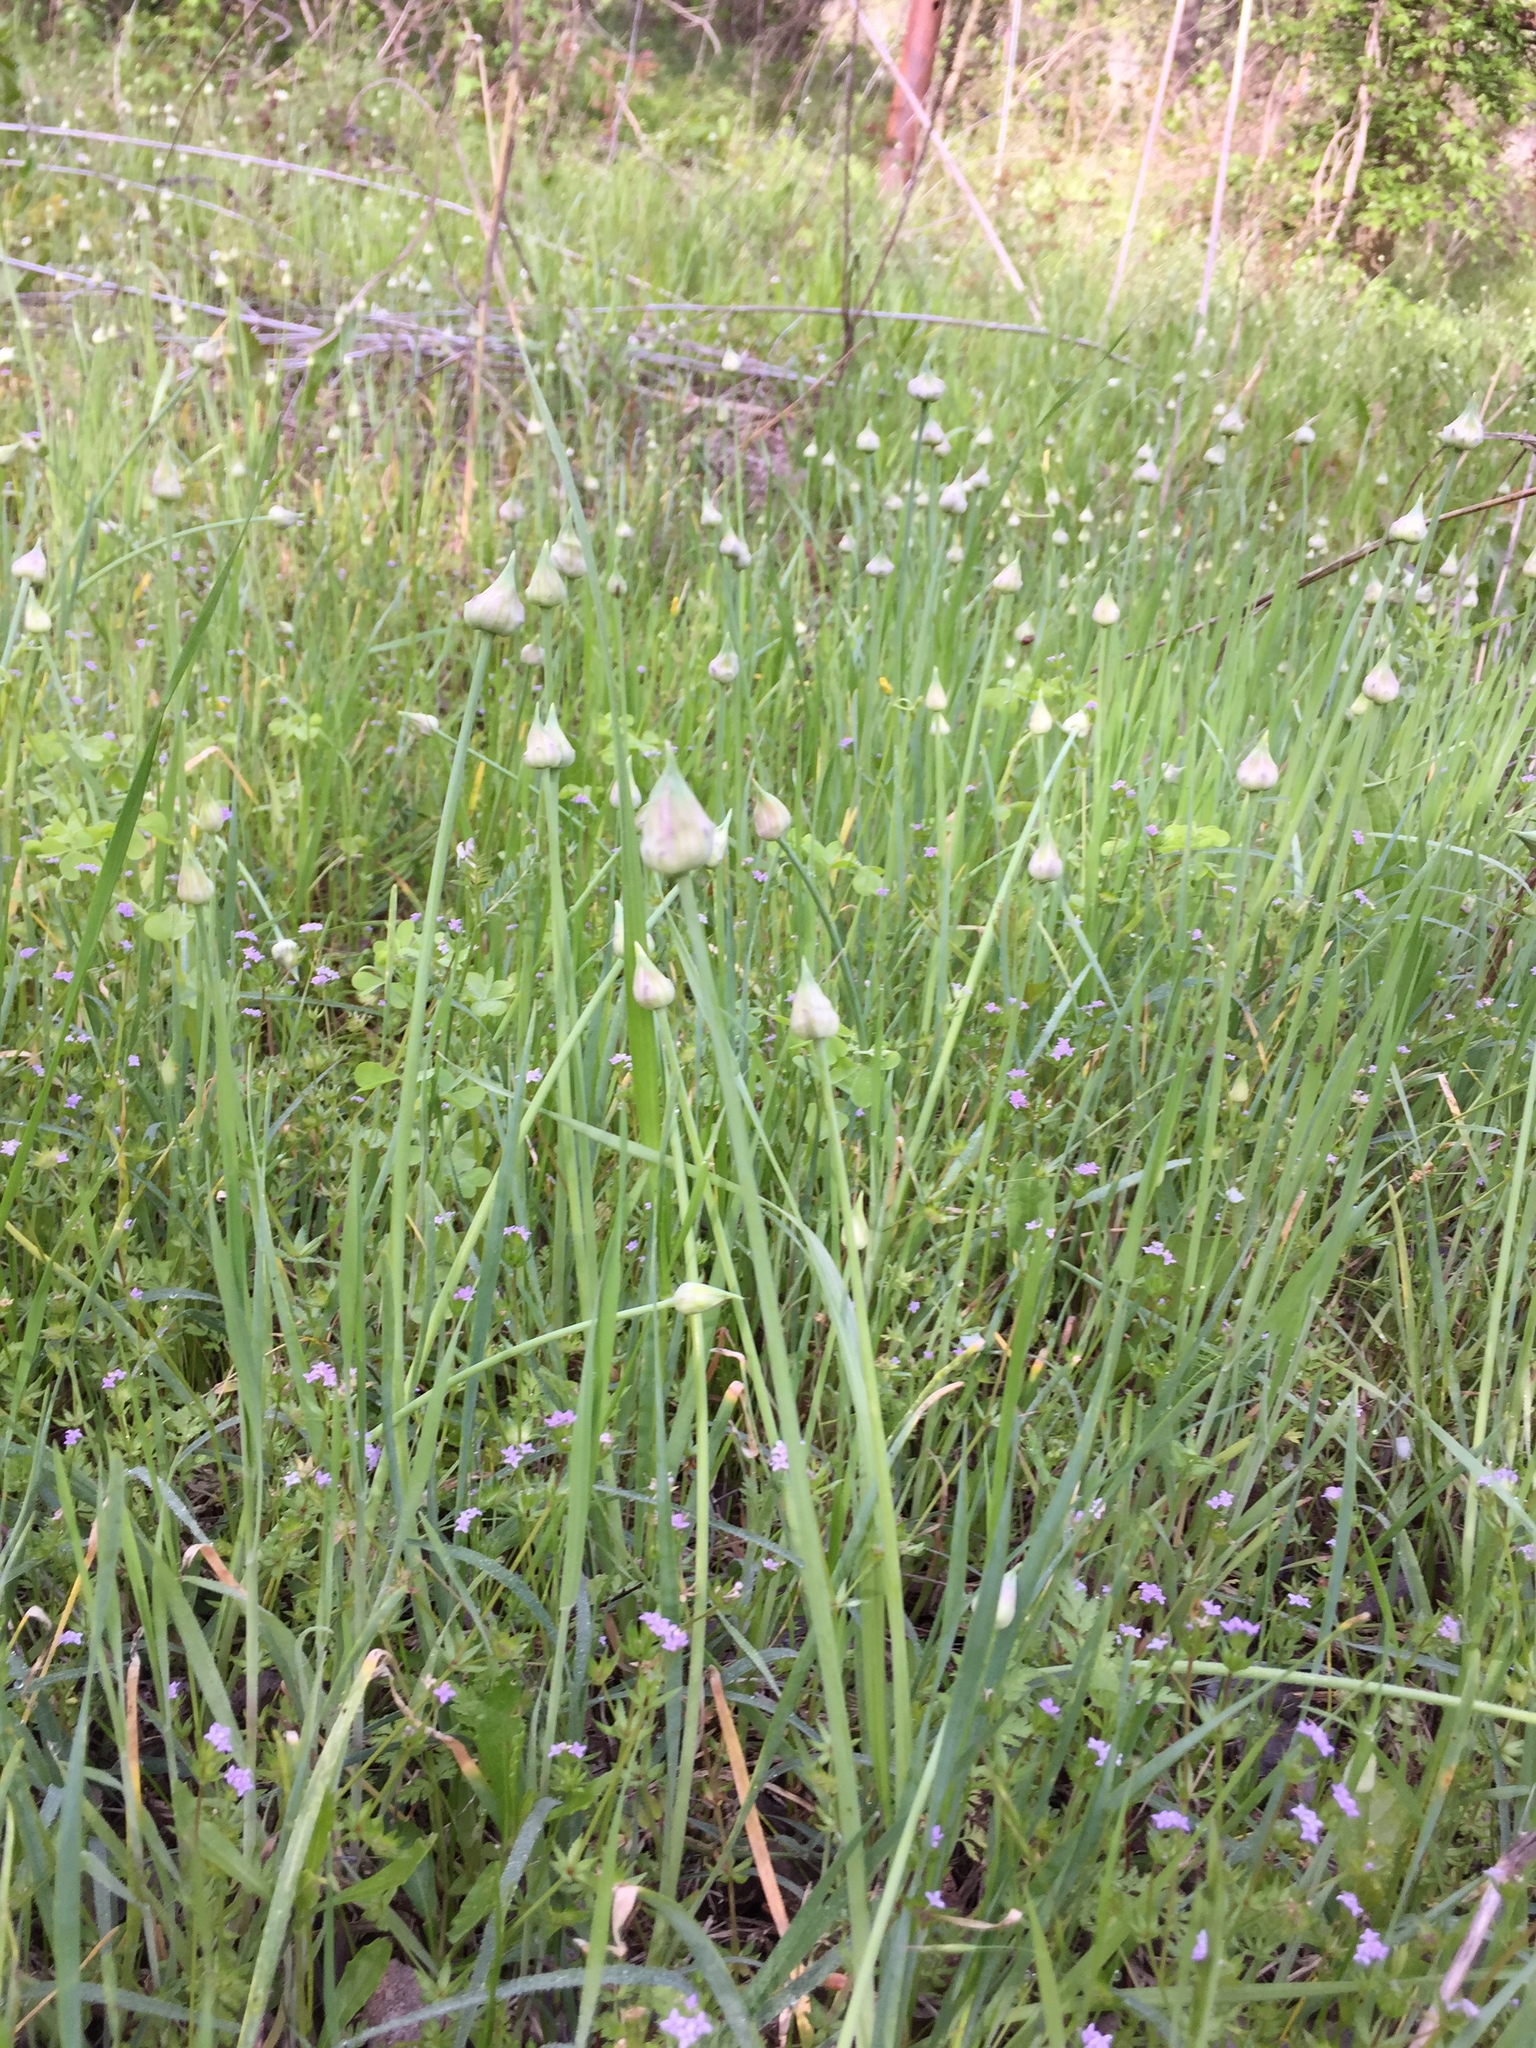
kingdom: Plantae
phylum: Tracheophyta
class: Liliopsida
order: Asparagales
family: Amaryllidaceae
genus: Allium
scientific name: Allium canadense
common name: Meadow garlic
